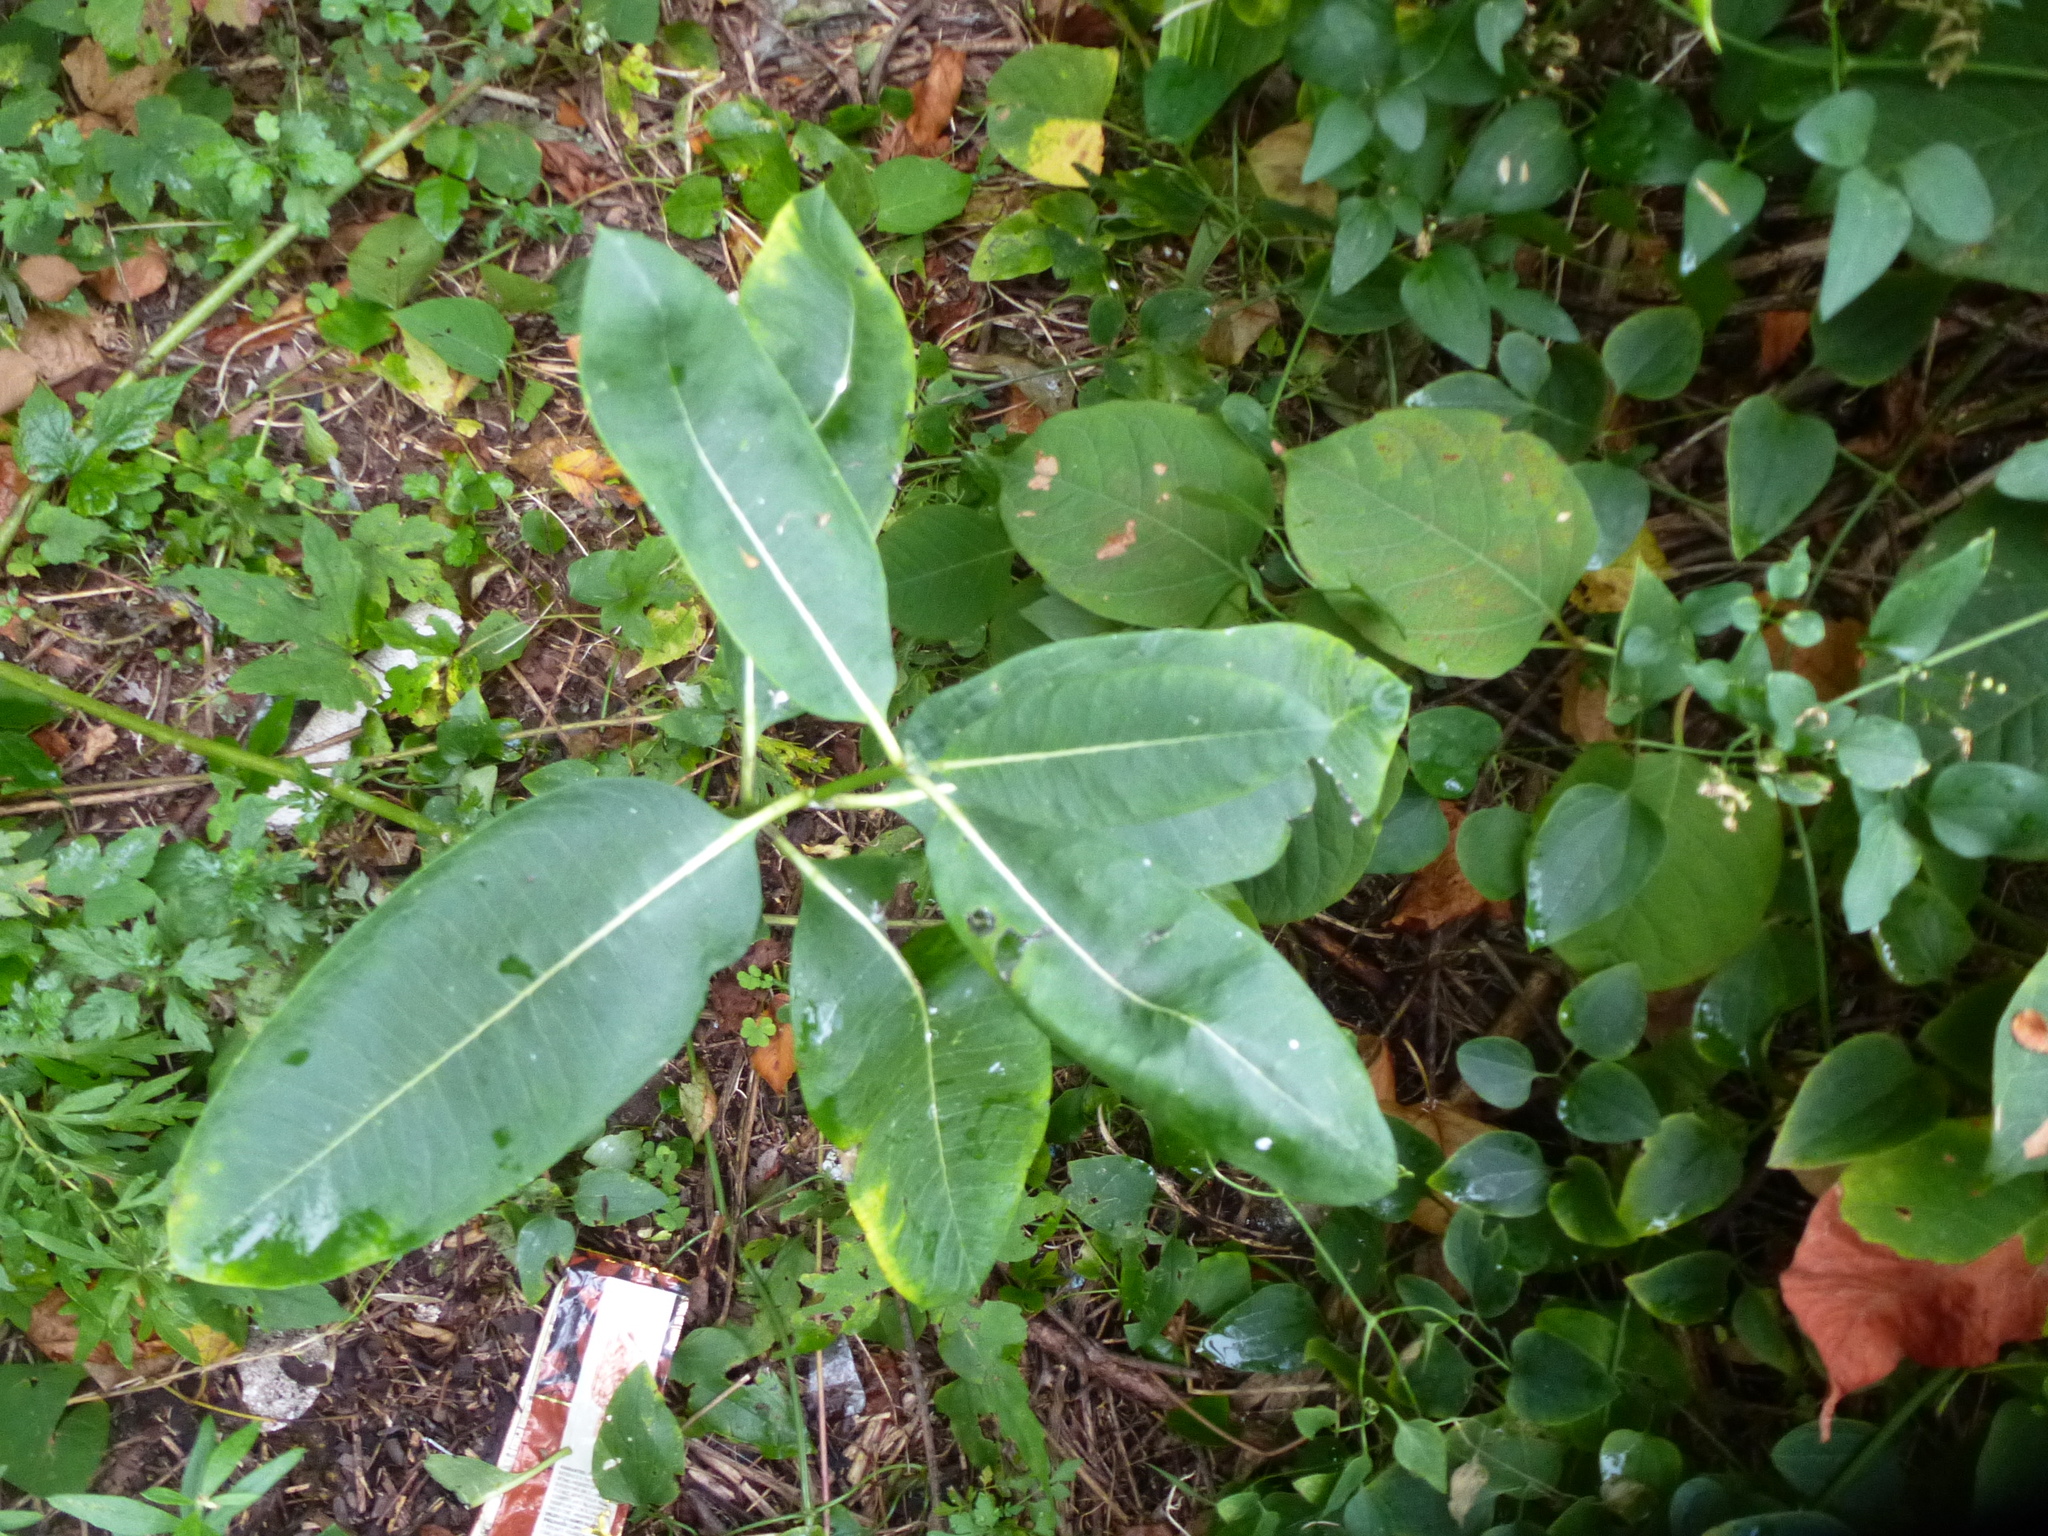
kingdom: Plantae
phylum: Tracheophyta
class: Magnoliopsida
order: Gentianales
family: Apocynaceae
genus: Asclepias
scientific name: Asclepias syriaca
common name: Common milkweed
